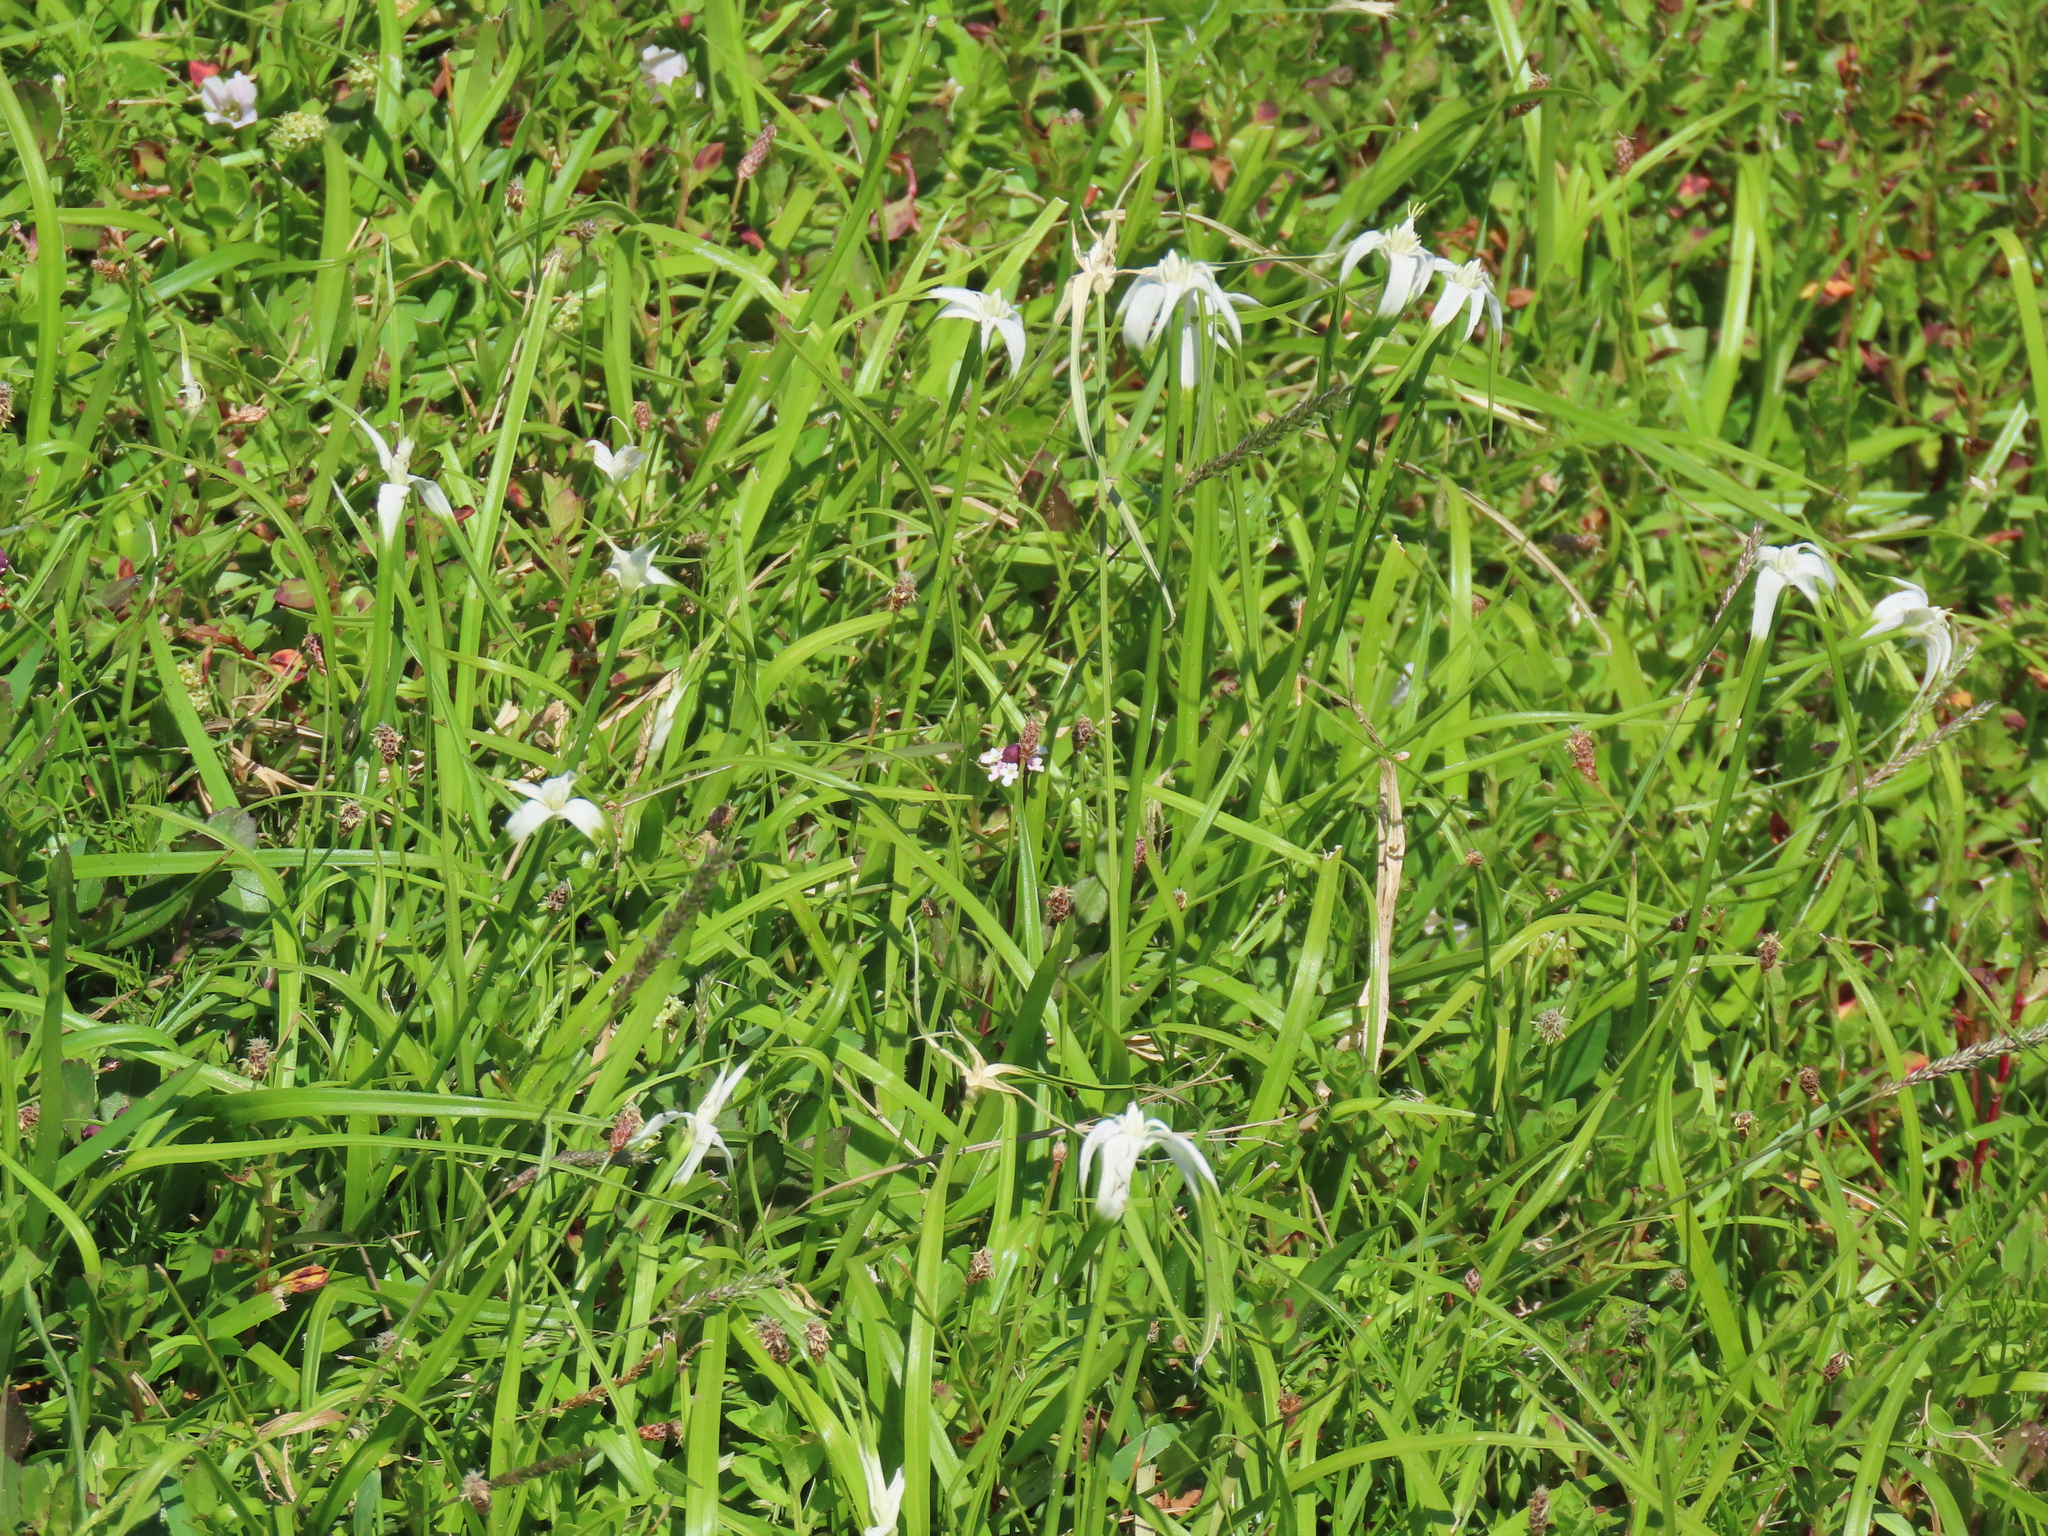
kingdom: Plantae
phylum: Tracheophyta
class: Liliopsida
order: Poales
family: Cyperaceae
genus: Rhynchospora
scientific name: Rhynchospora colorata
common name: Star sedge
